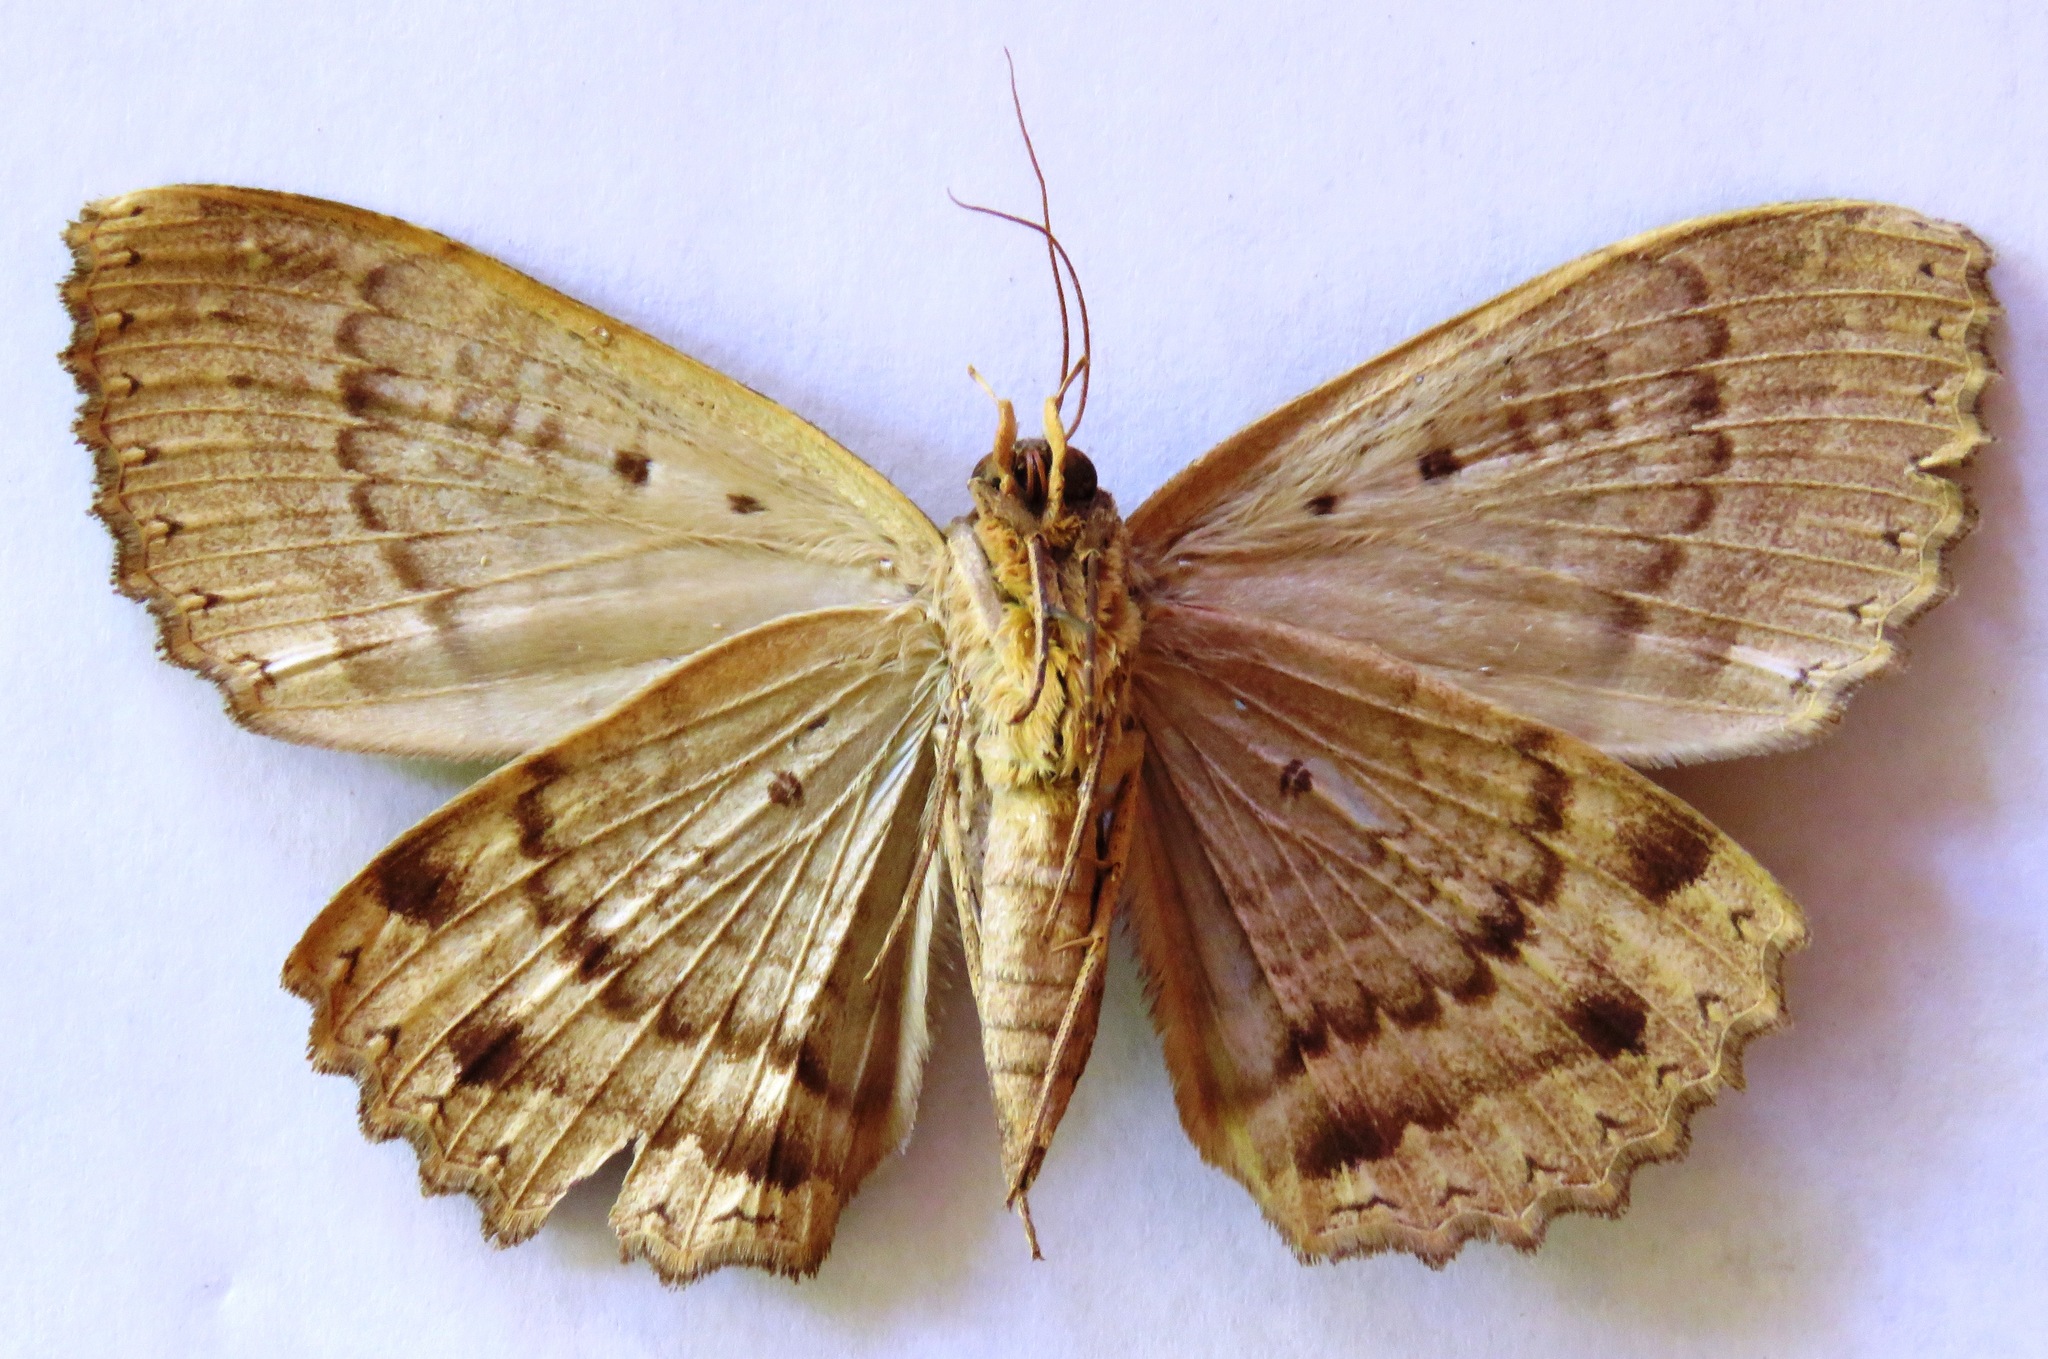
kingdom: Animalia
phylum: Arthropoda
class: Insecta
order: Lepidoptera
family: Erebidae
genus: Ramphia
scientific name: Ramphia albizona
